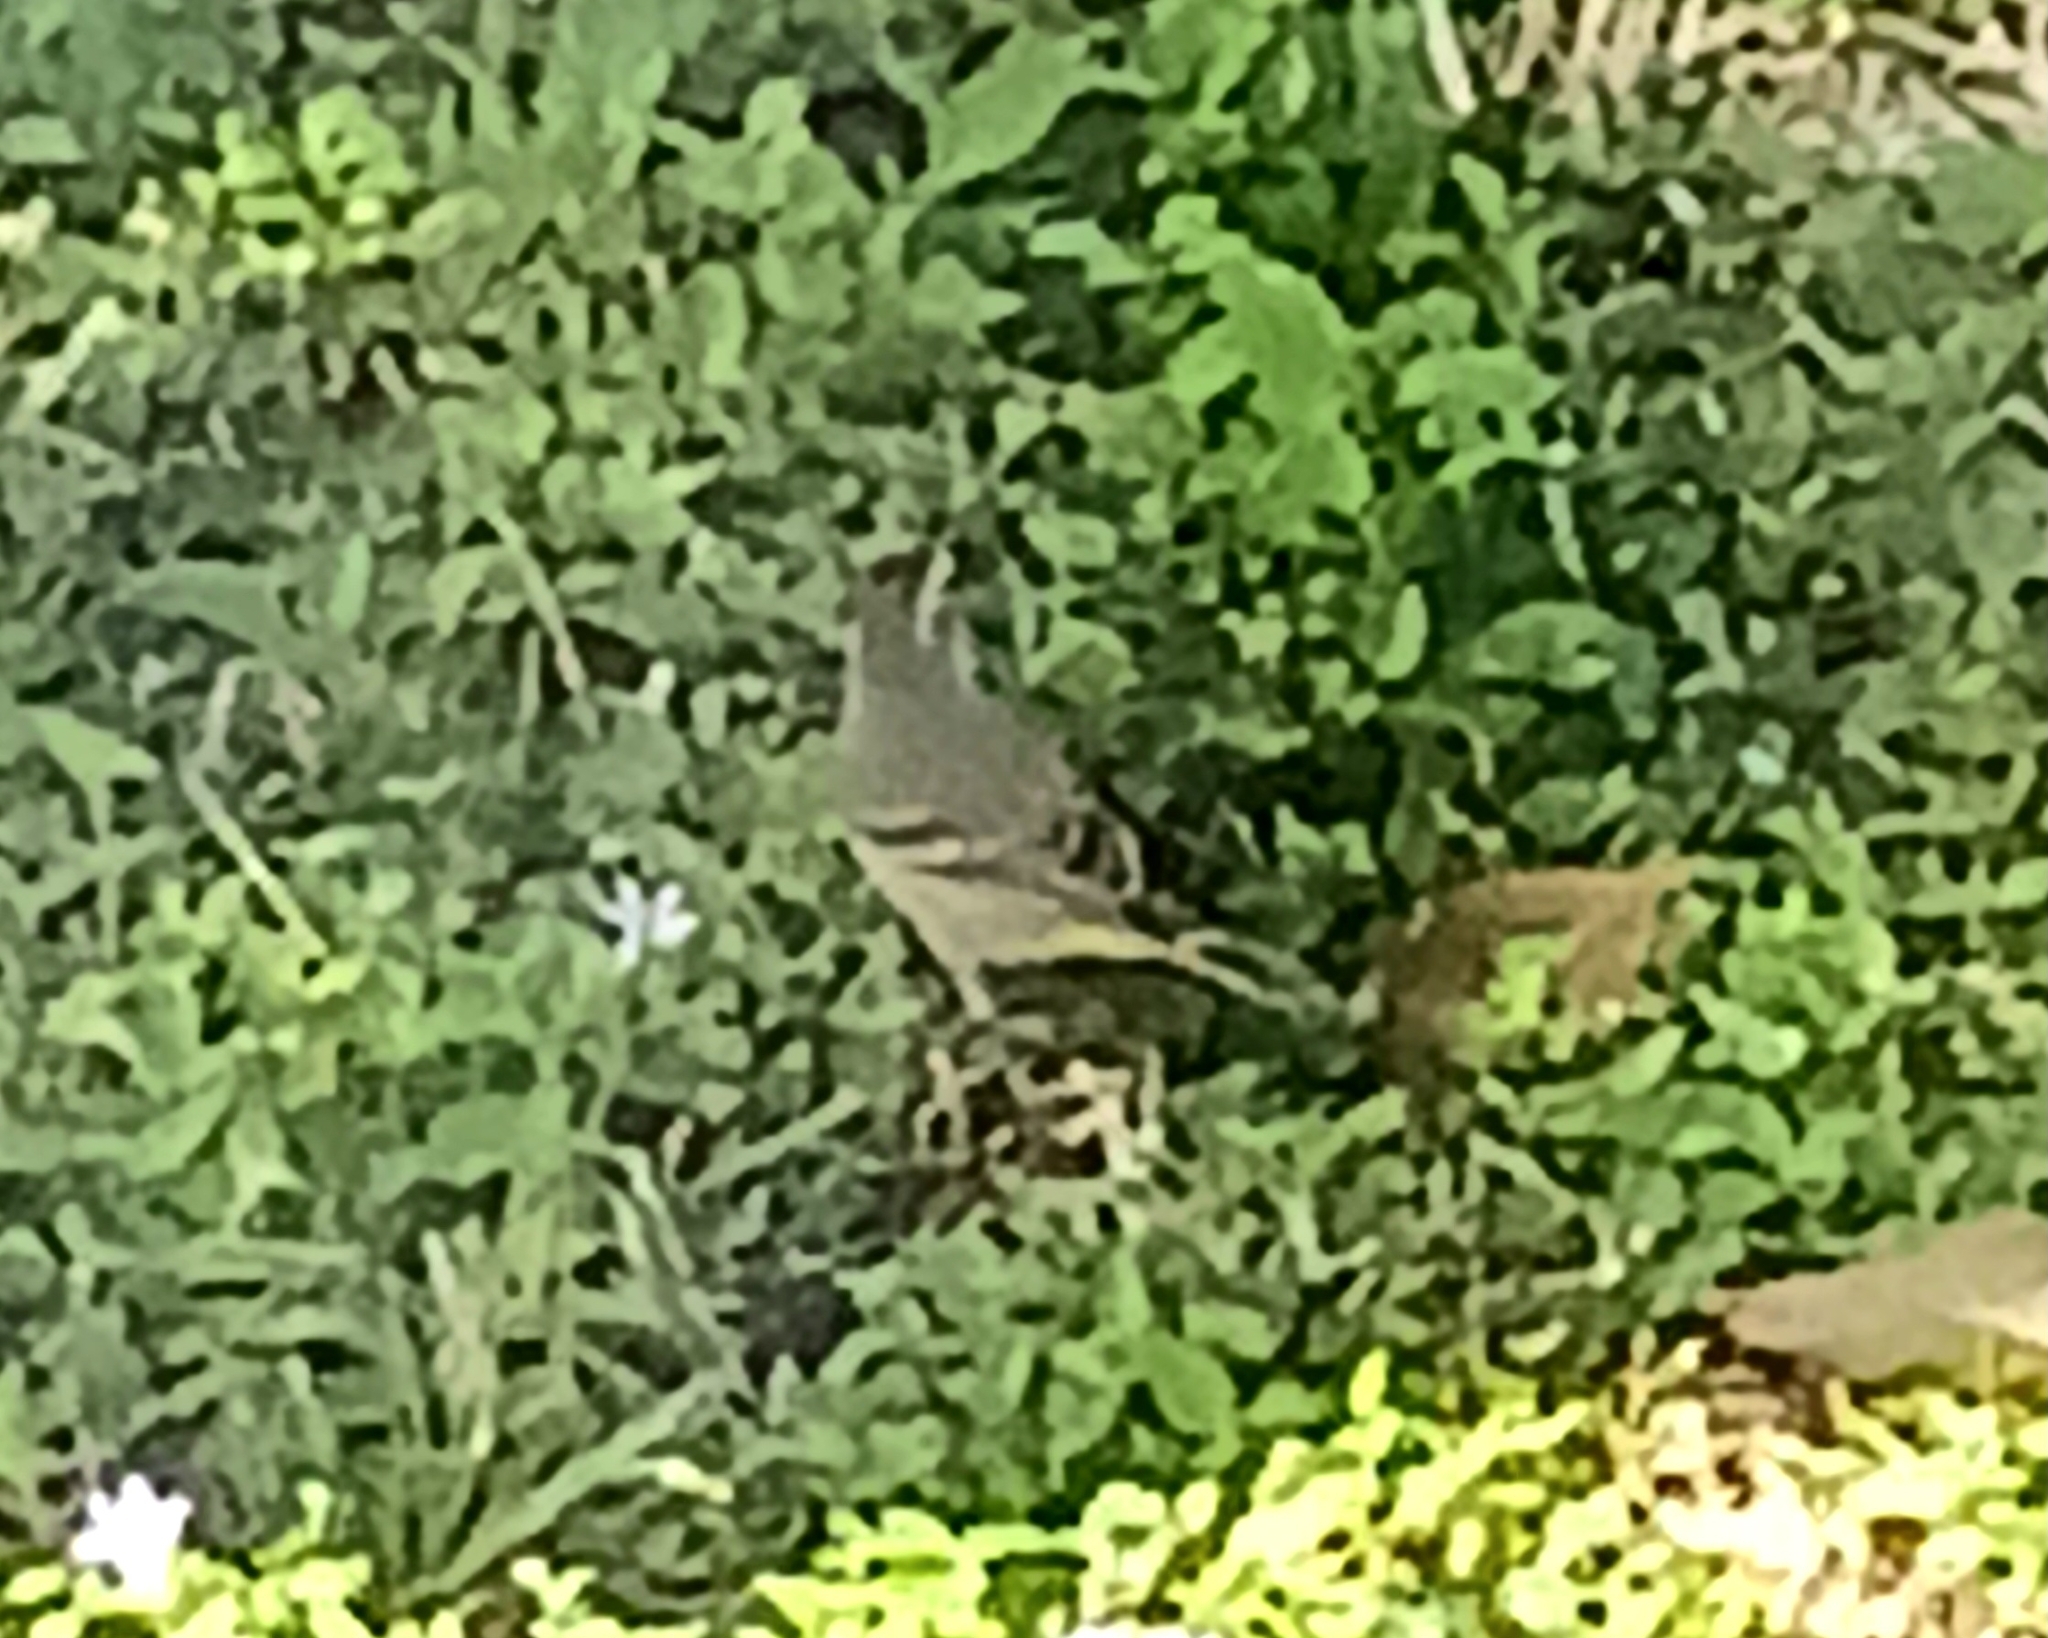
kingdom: Animalia
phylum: Chordata
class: Aves
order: Passeriformes
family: Parulidae
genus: Setophaga
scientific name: Setophaga palmarum
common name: Palm warbler
